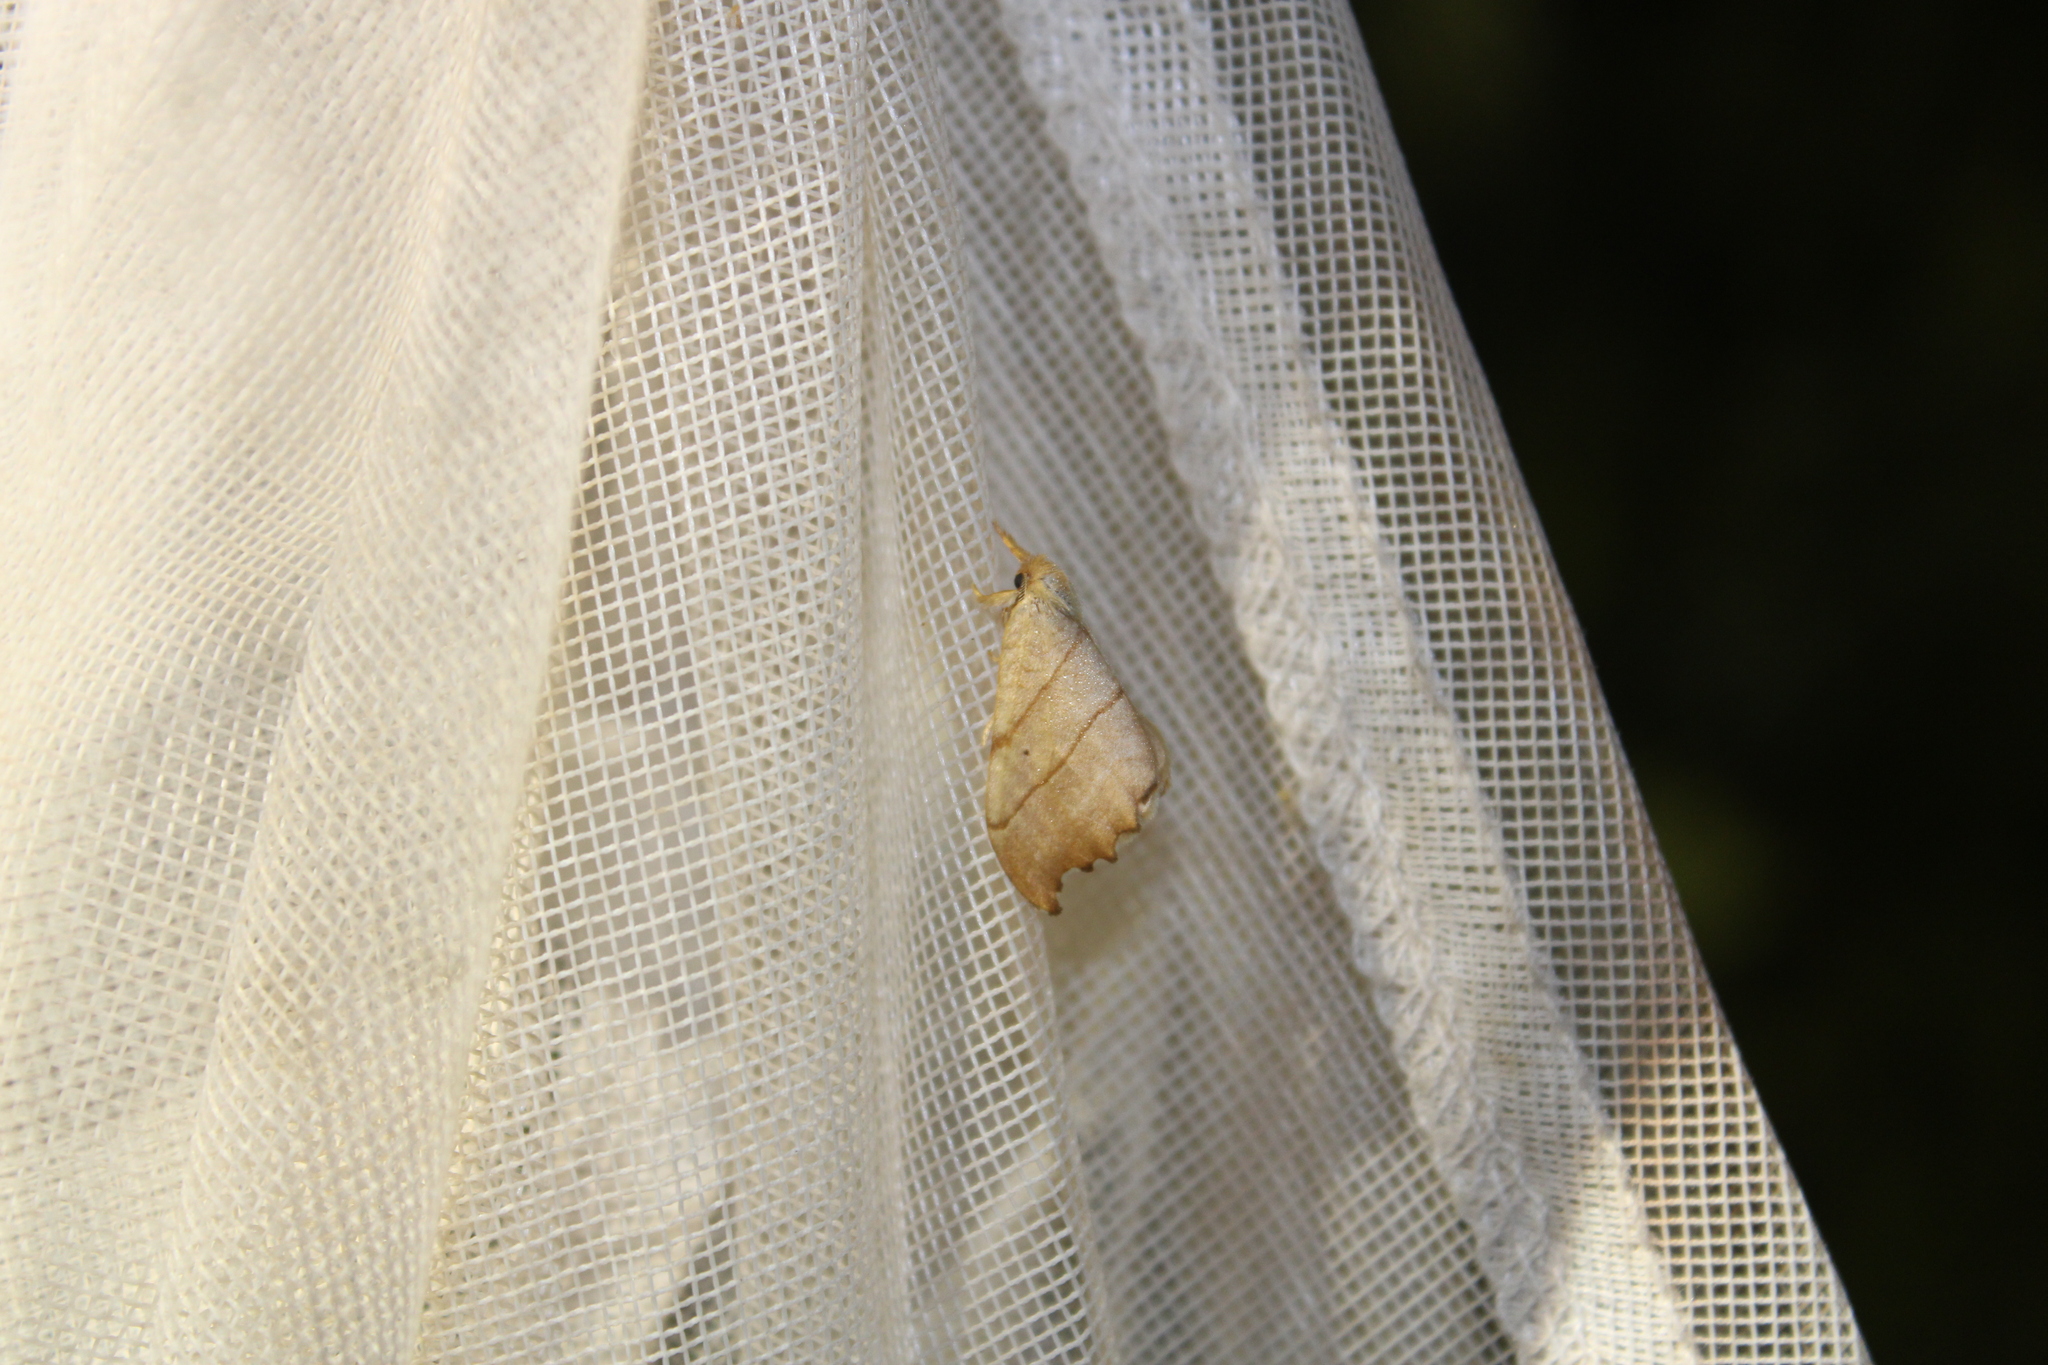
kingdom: Animalia
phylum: Arthropoda
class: Insecta
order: Lepidoptera
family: Drepanidae
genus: Falcaria
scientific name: Falcaria bilineata
